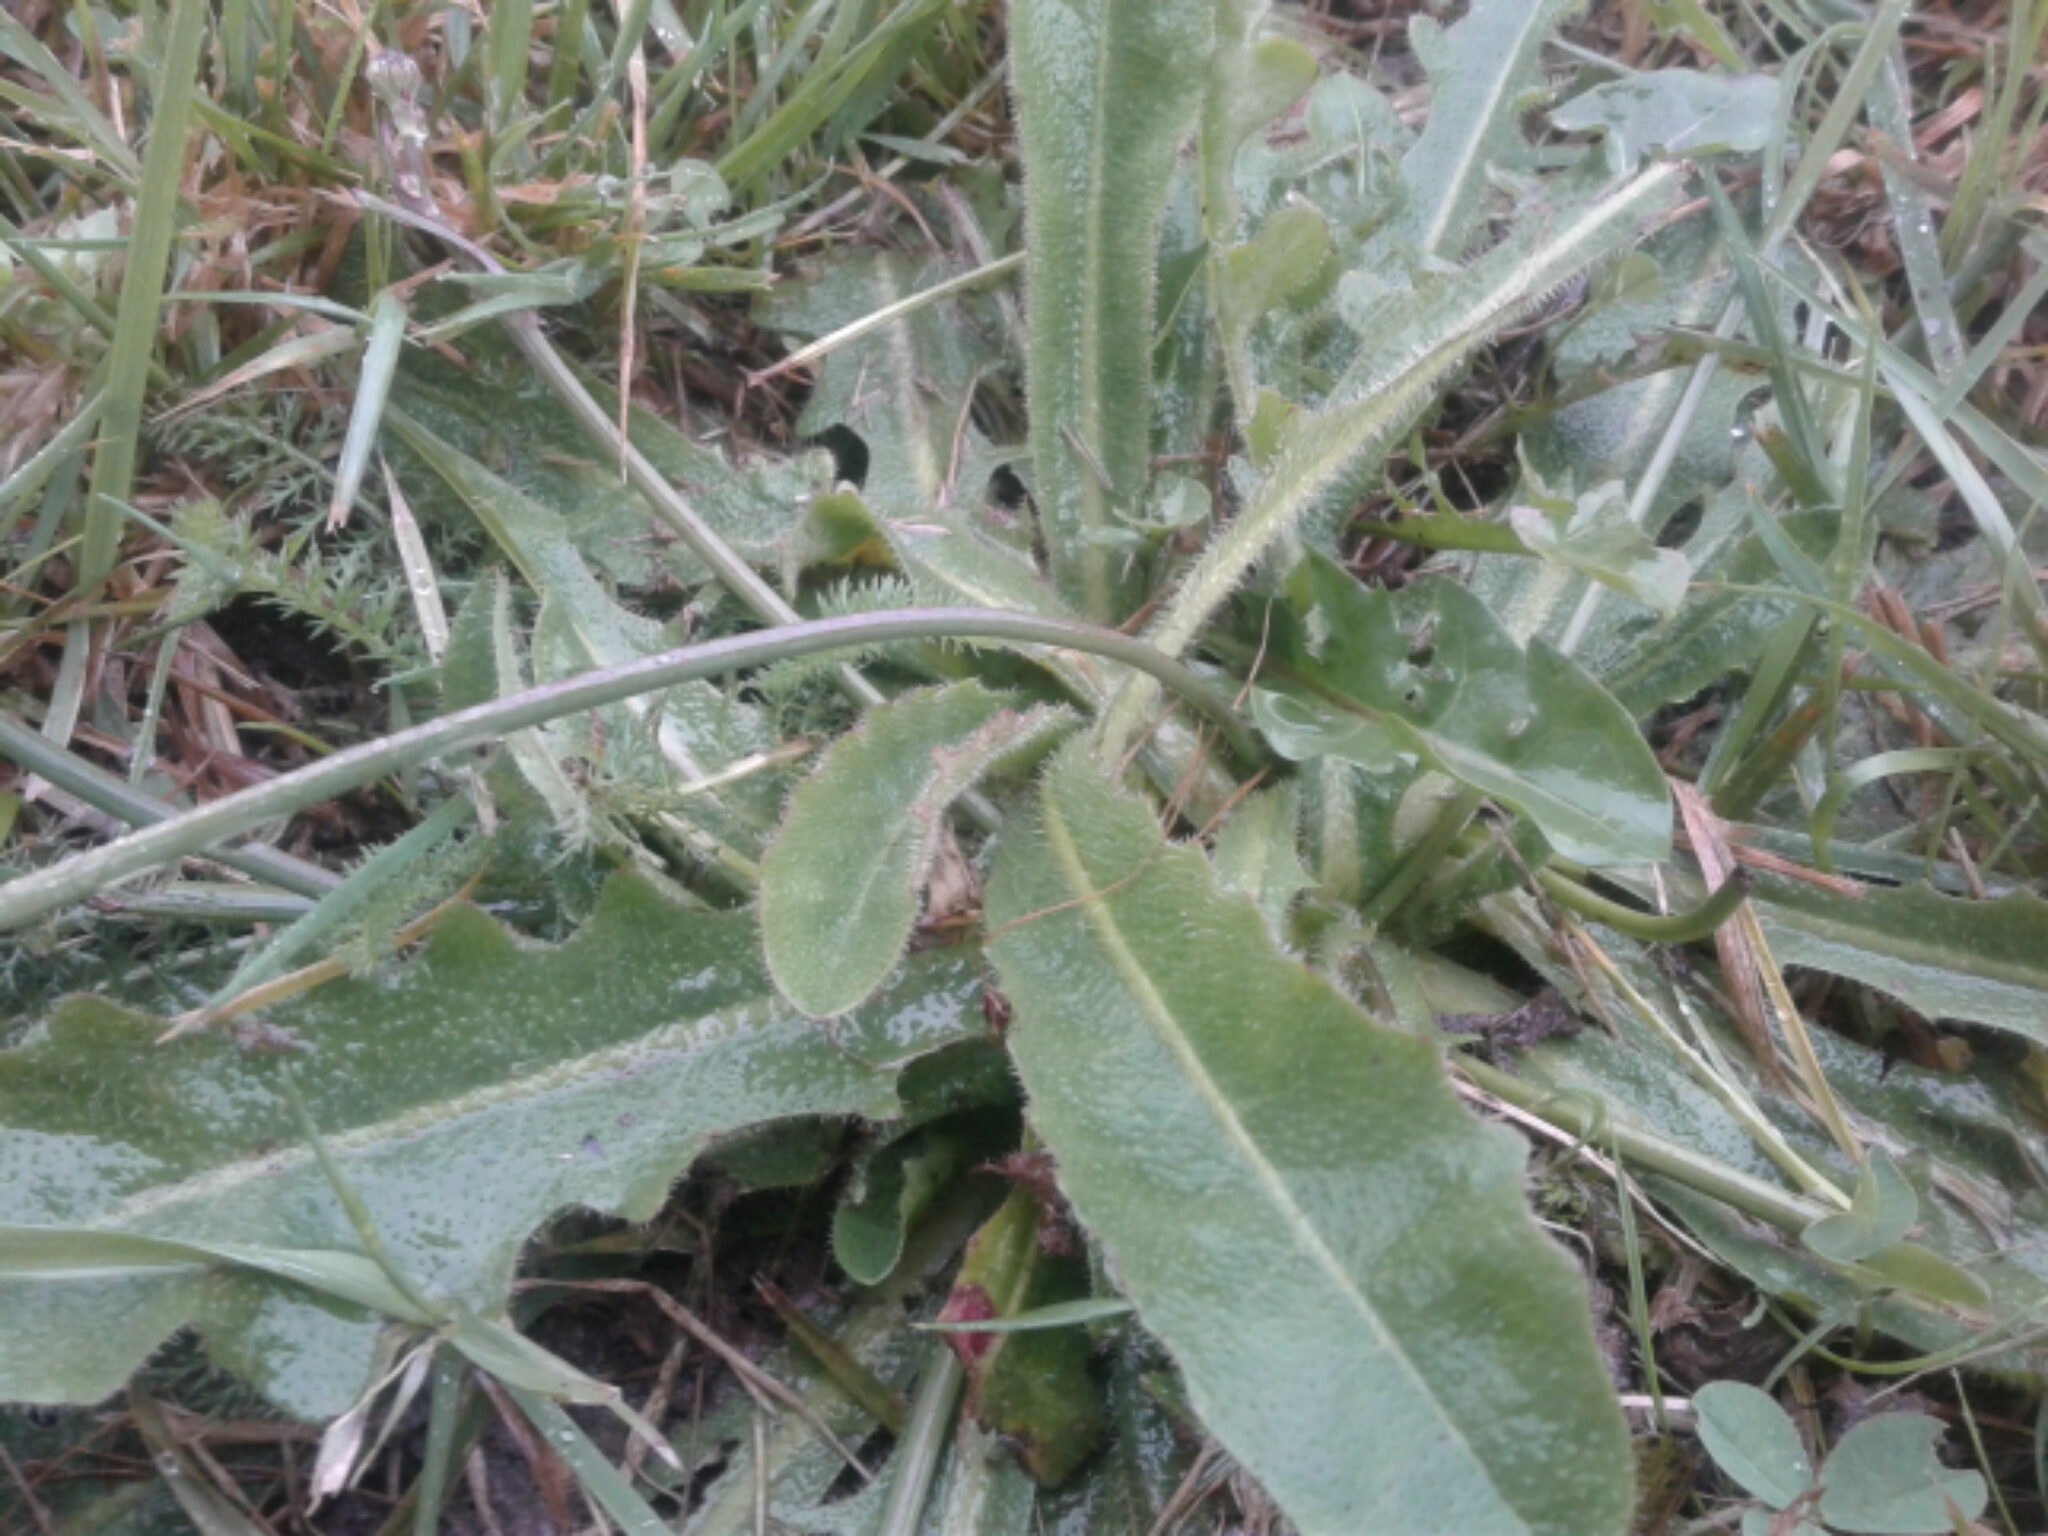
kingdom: Plantae
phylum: Tracheophyta
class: Magnoliopsida
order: Asterales
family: Asteraceae
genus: Hypochaeris
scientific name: Hypochaeris radicata
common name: Flatweed
